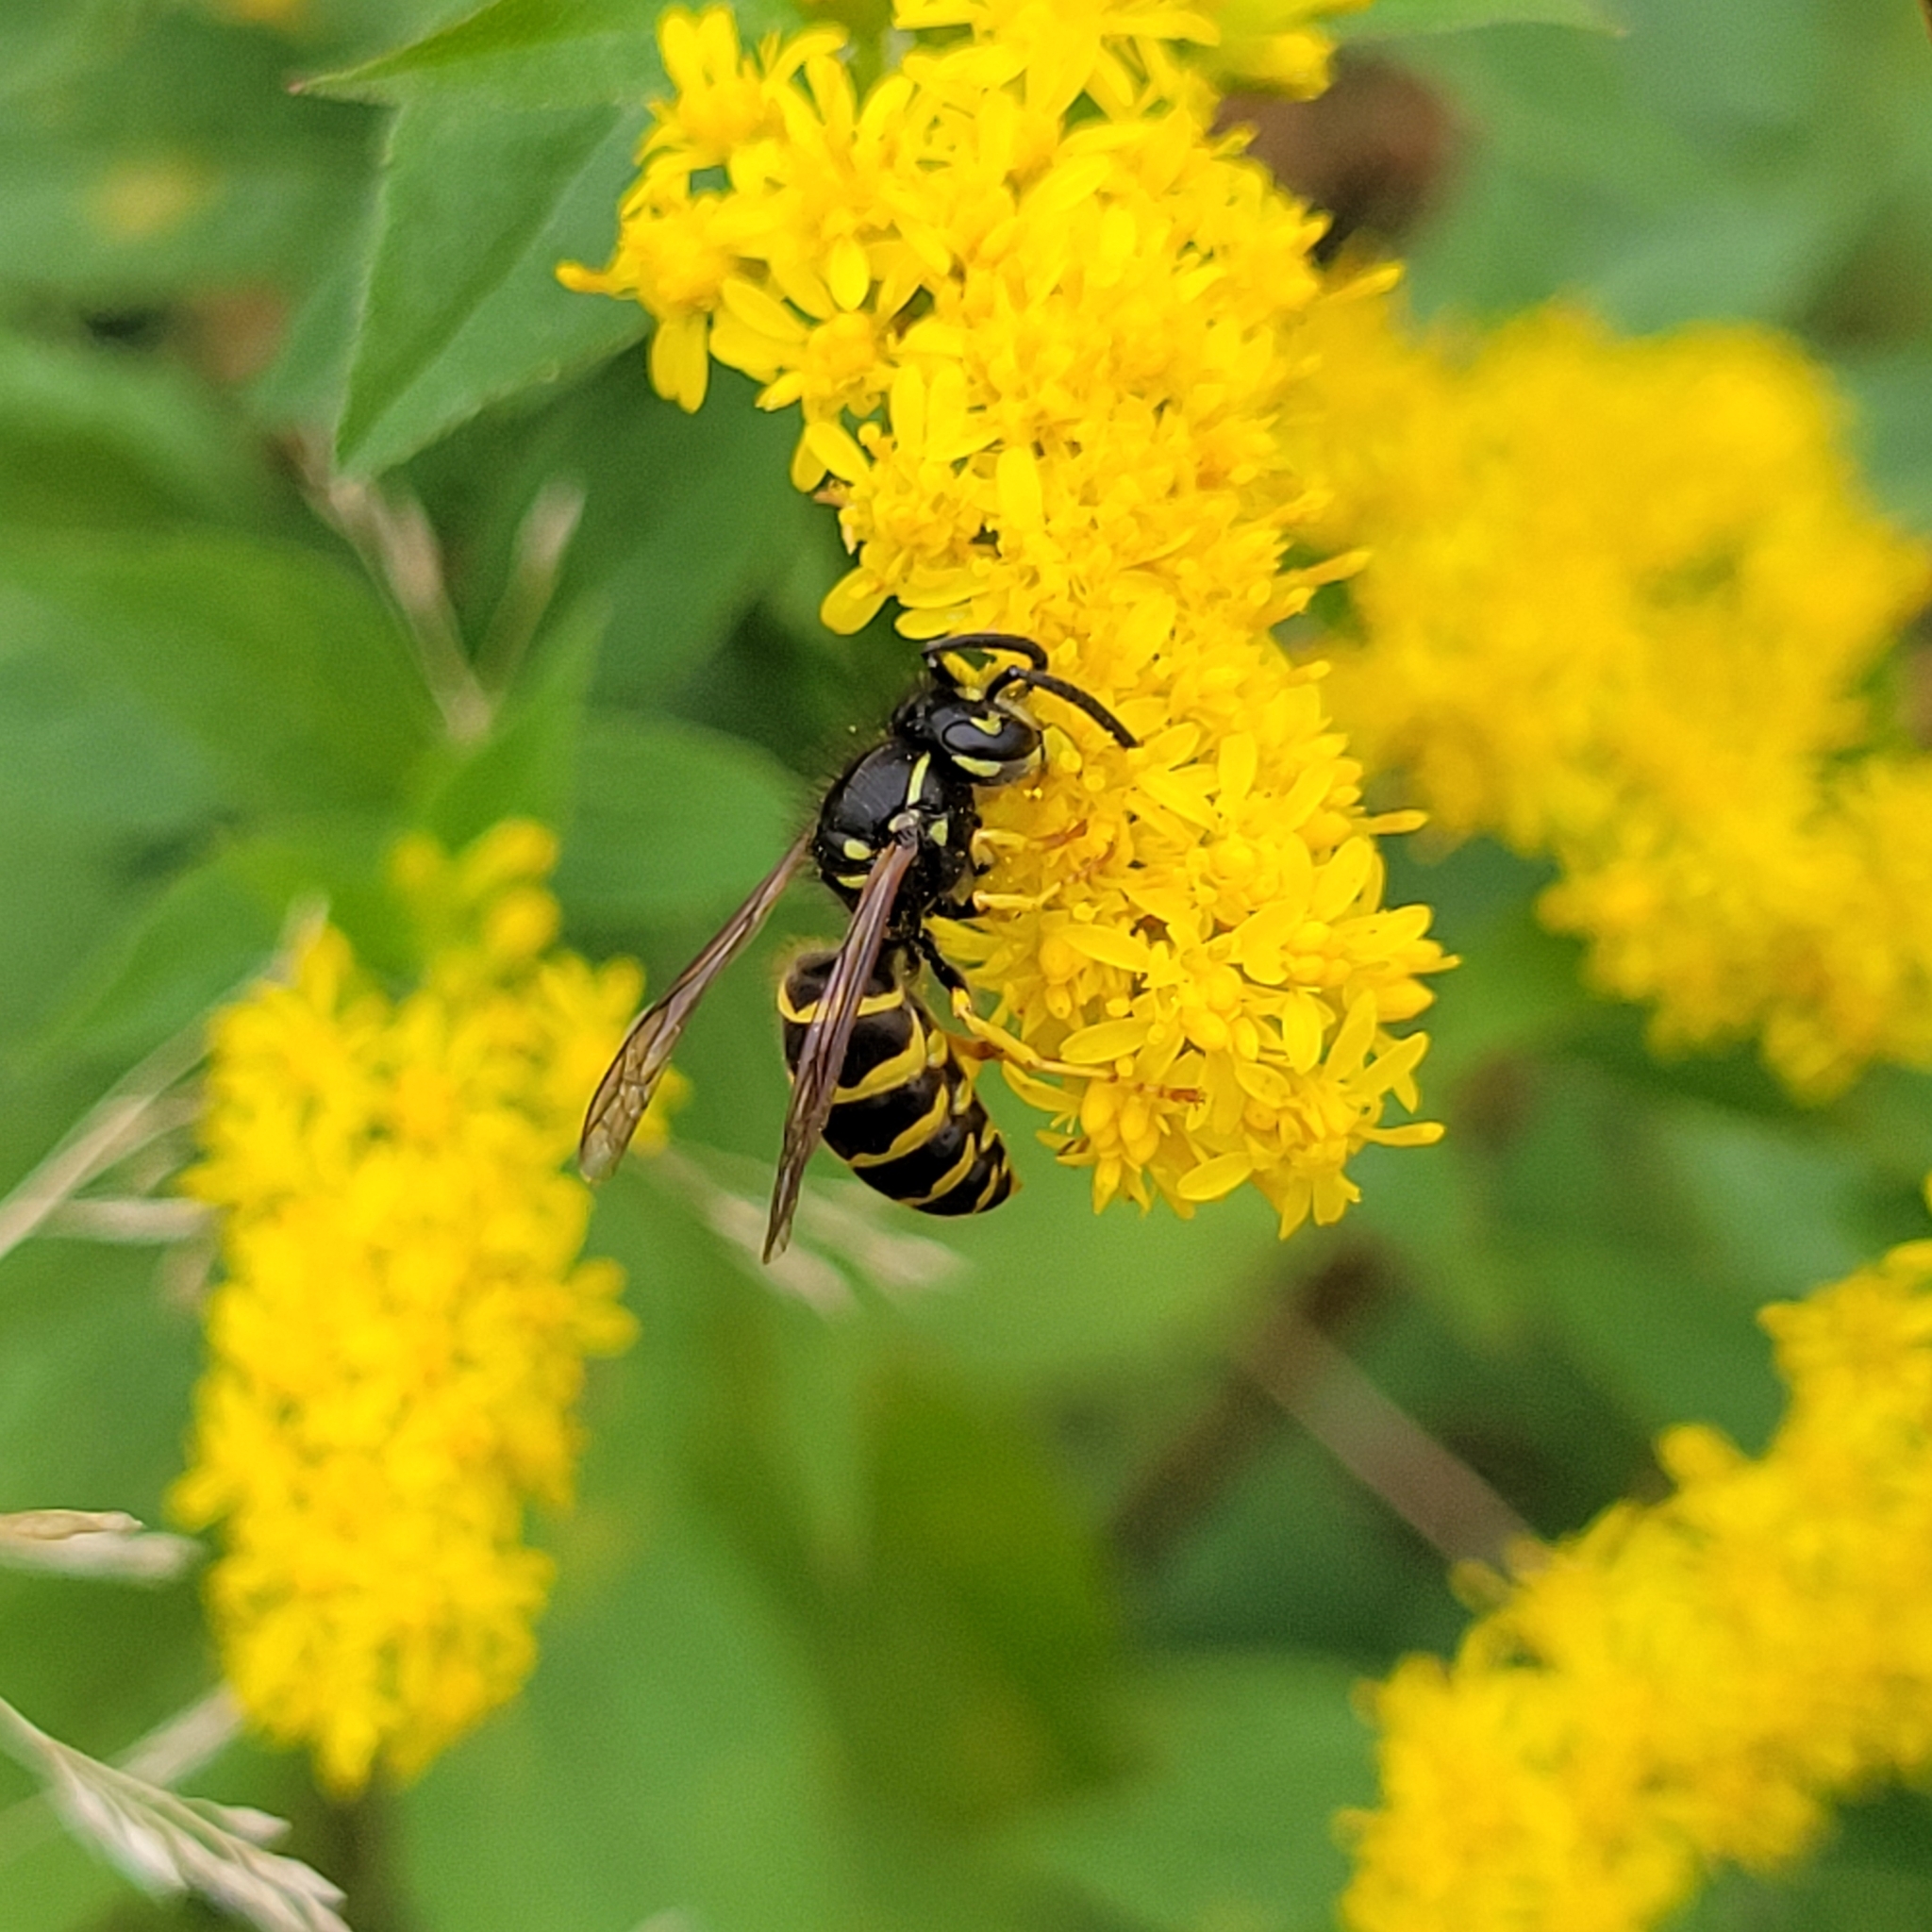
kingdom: Animalia
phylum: Arthropoda
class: Insecta
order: Hymenoptera
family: Vespidae
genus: Vespula
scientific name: Vespula alascensis
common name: Alaska yellowjacket
